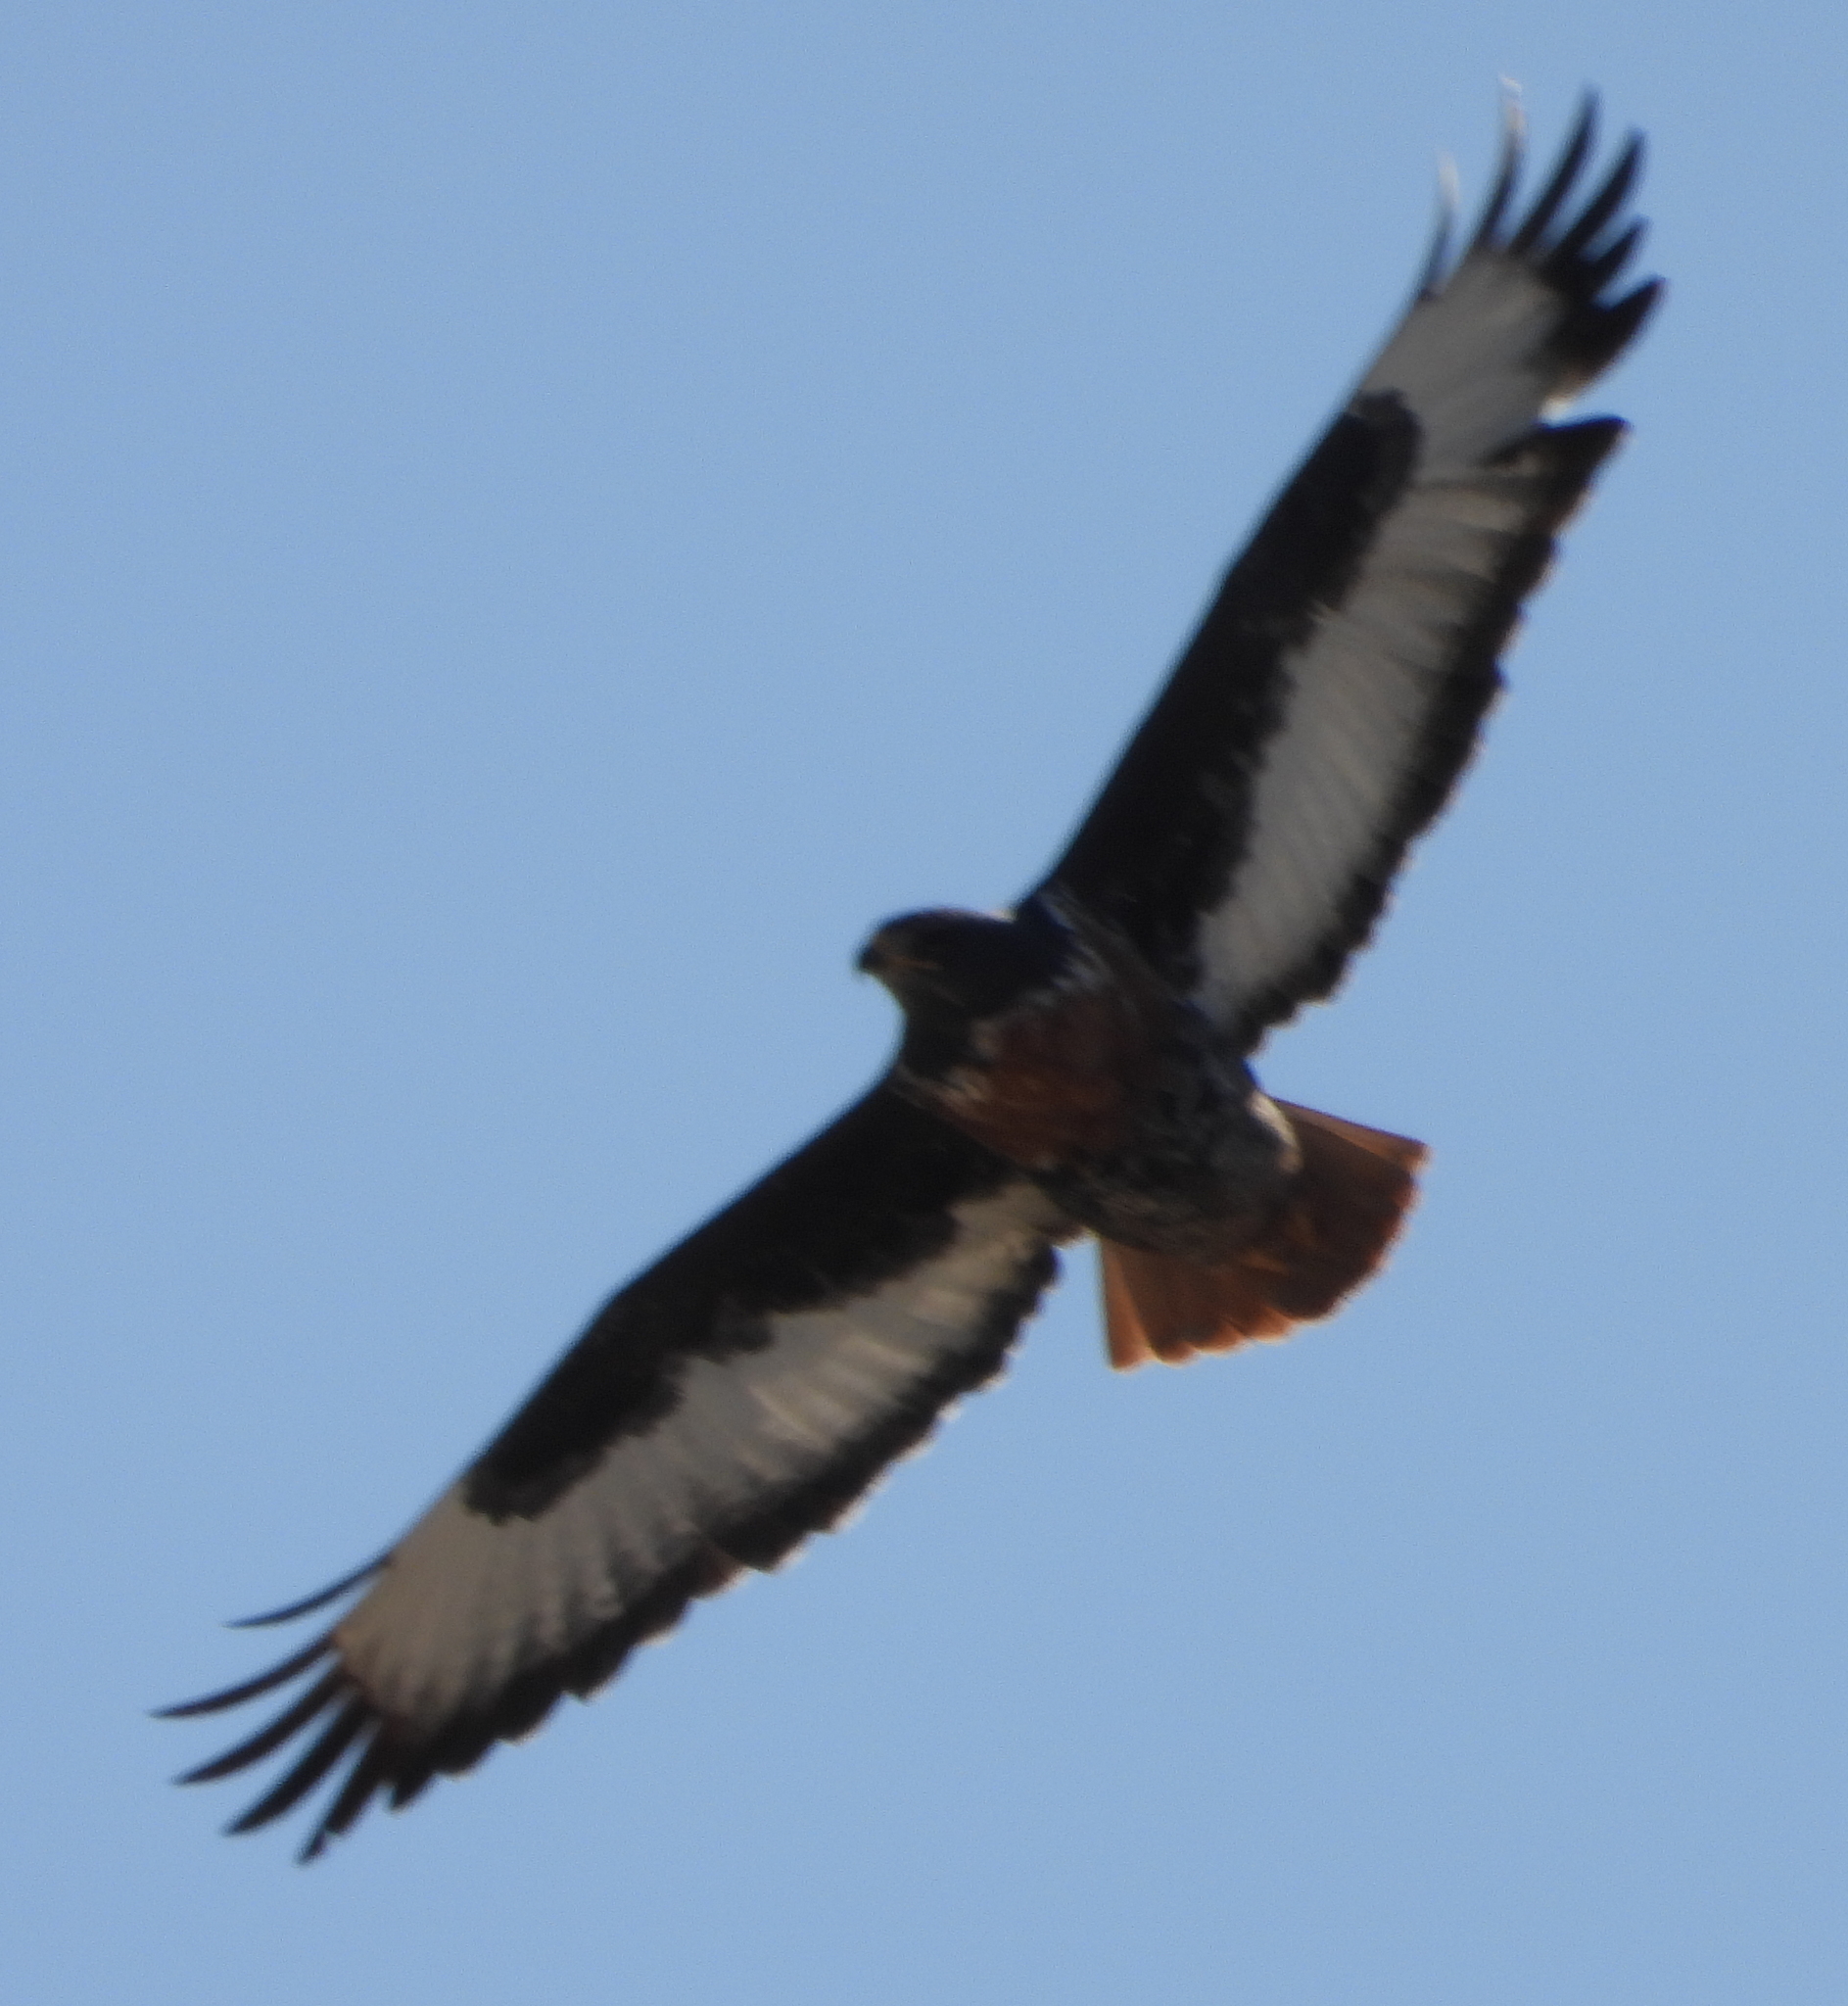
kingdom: Animalia
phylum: Chordata
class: Aves
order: Accipitriformes
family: Accipitridae
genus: Buteo
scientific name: Buteo rufofuscus
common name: Jackal buzzard
